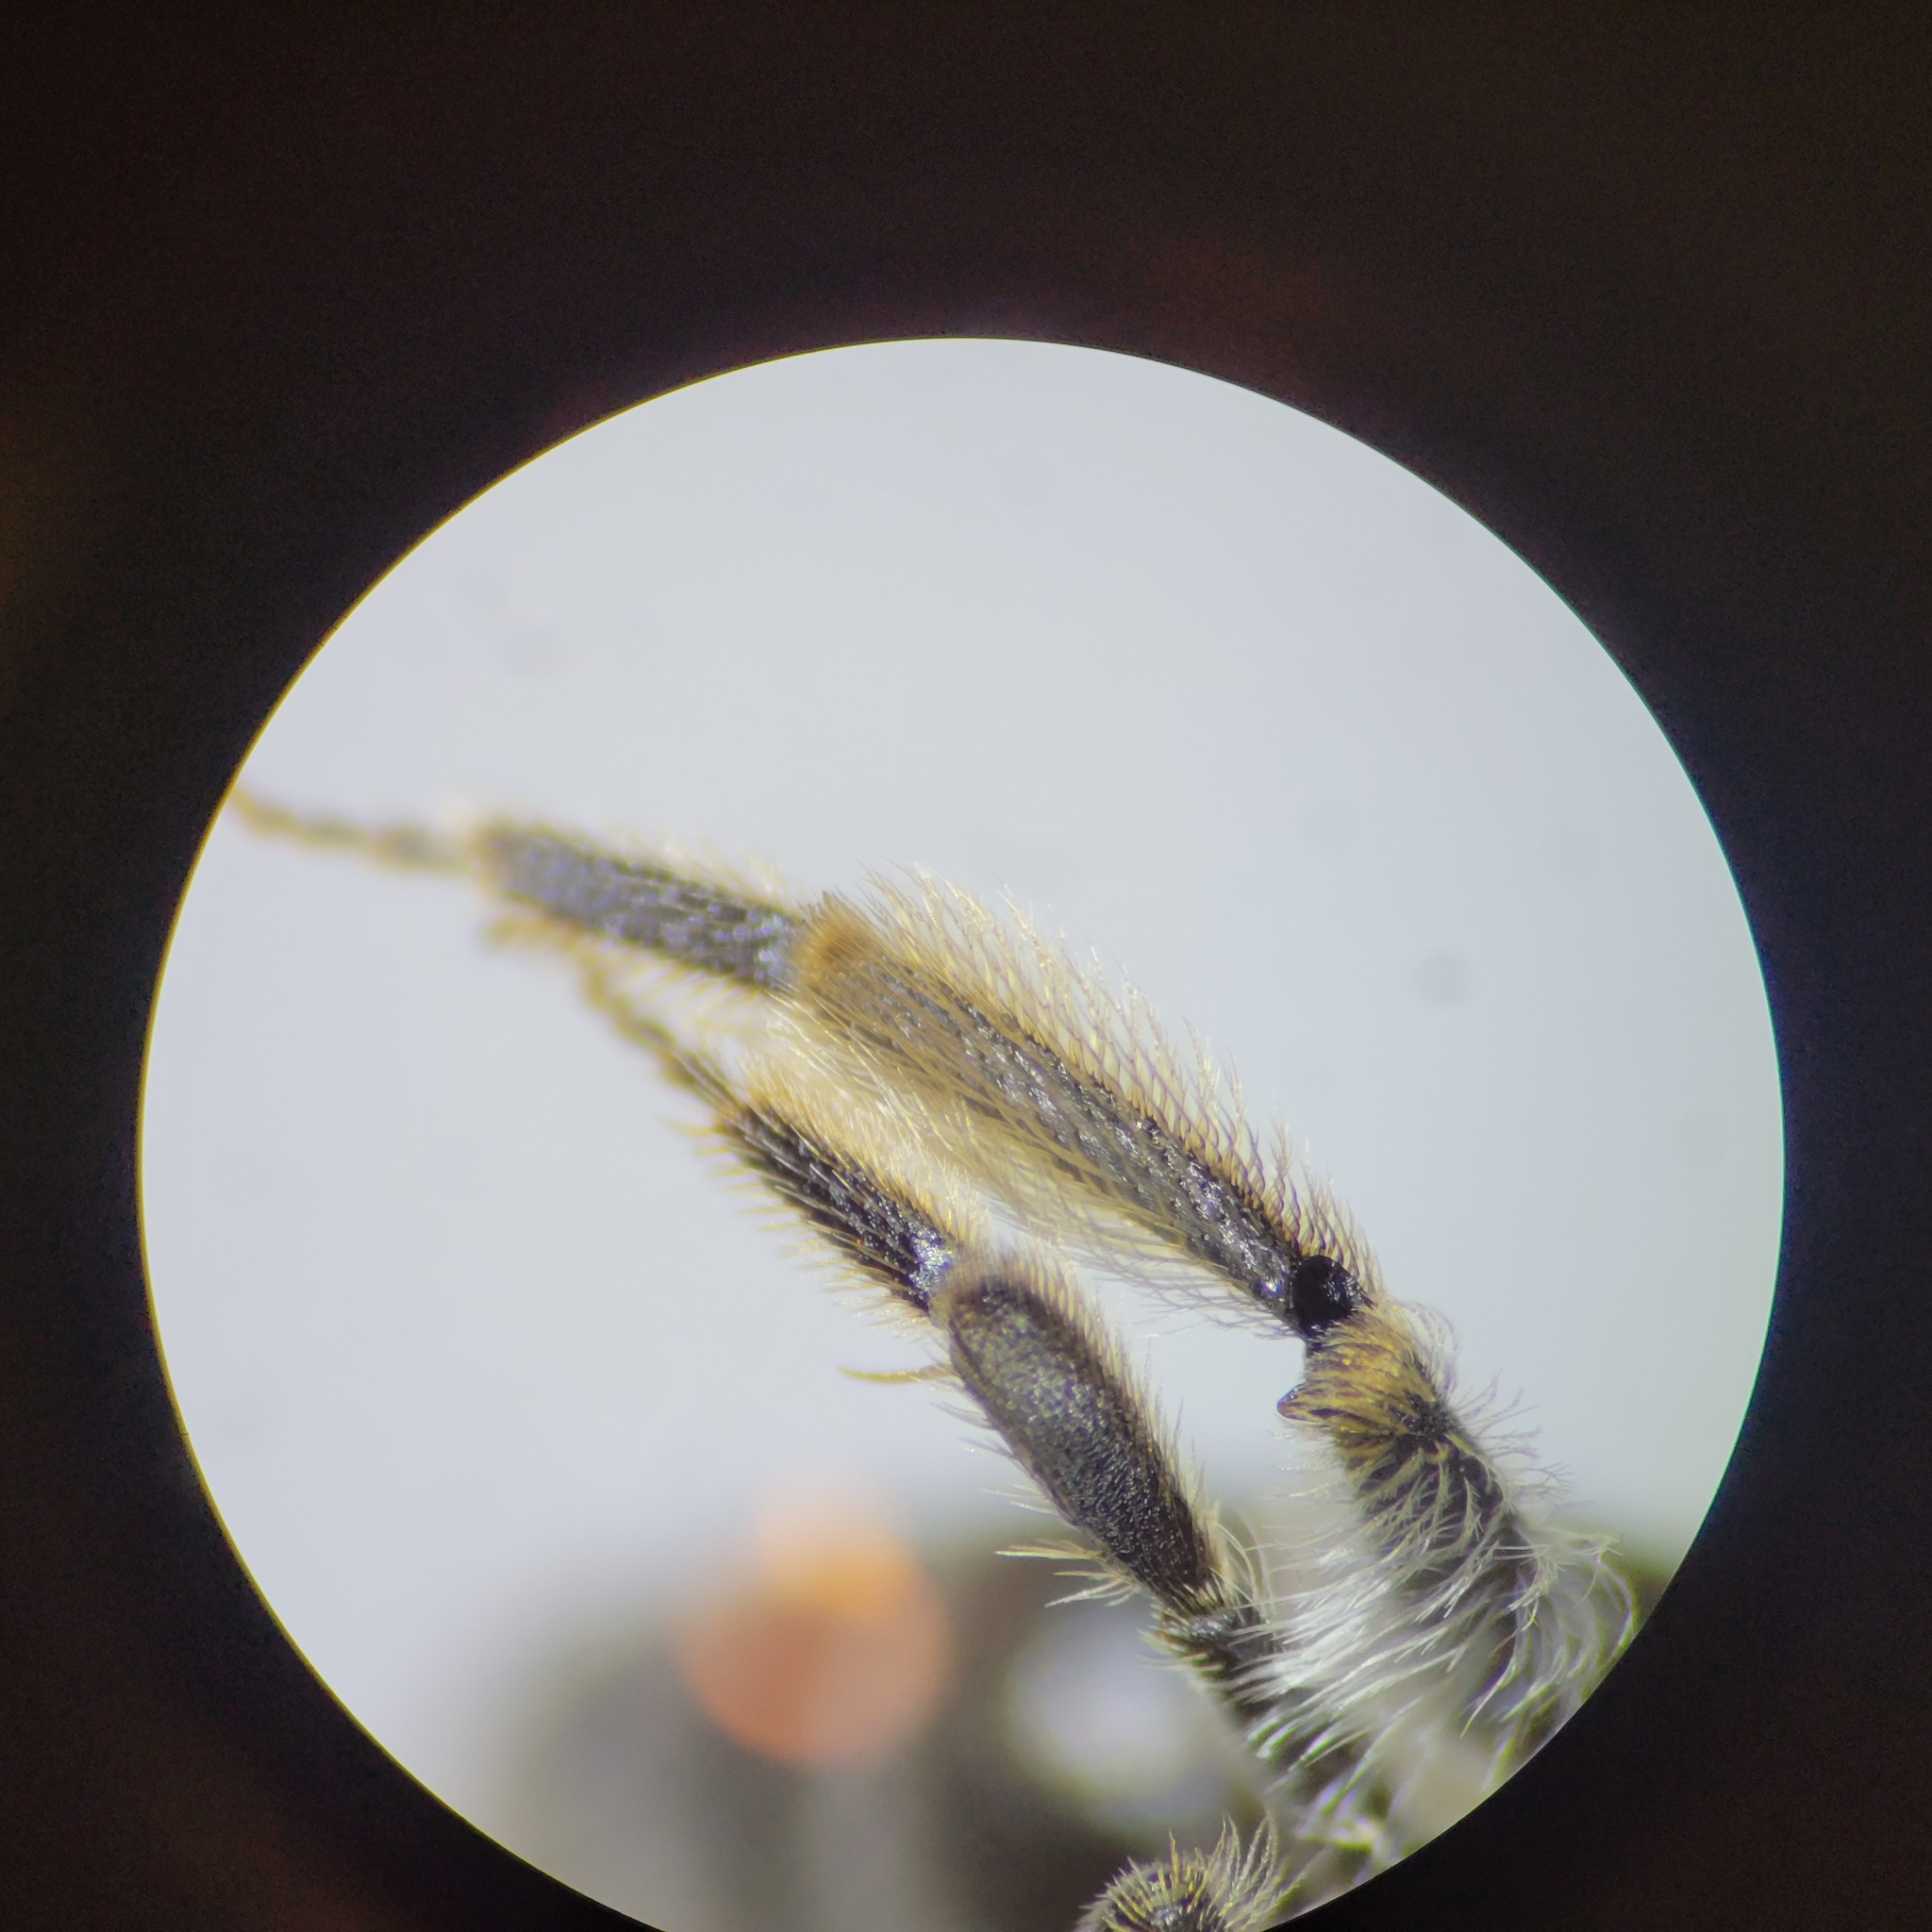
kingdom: Animalia
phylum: Arthropoda
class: Insecta
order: Hymenoptera
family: Andrenidae
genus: Andrena
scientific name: Andrena miserabilis
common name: Miserable mining bee
